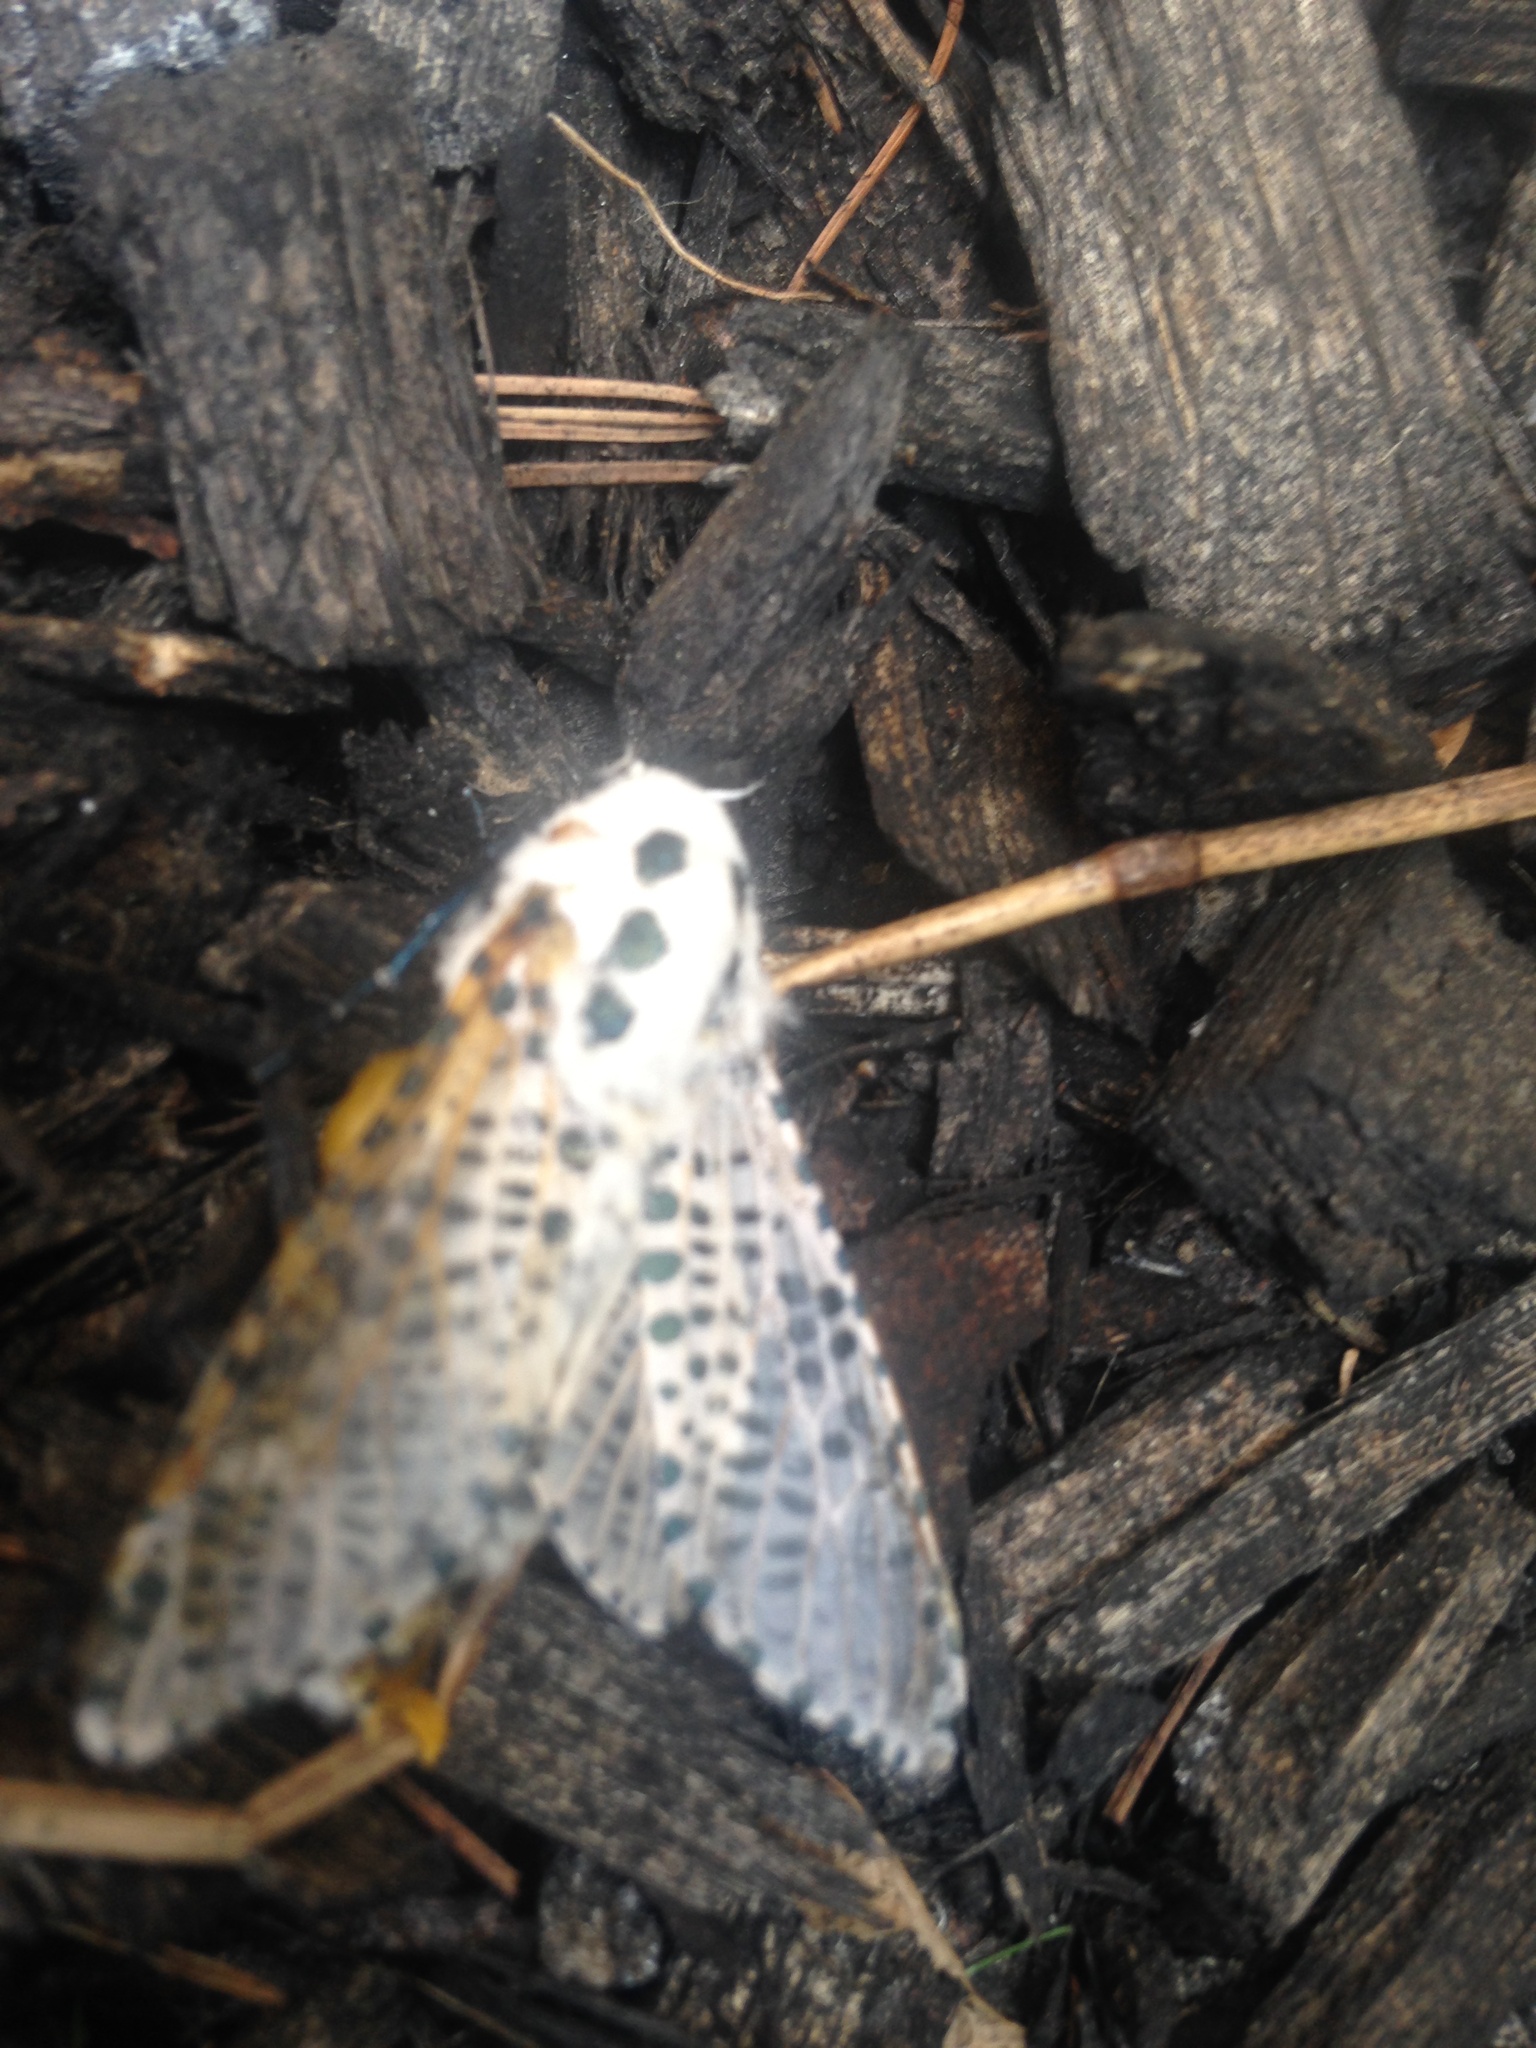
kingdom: Animalia
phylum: Arthropoda
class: Insecta
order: Lepidoptera
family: Cossidae
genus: Zeuzera
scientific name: Zeuzera pyrina
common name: Leopard moth
